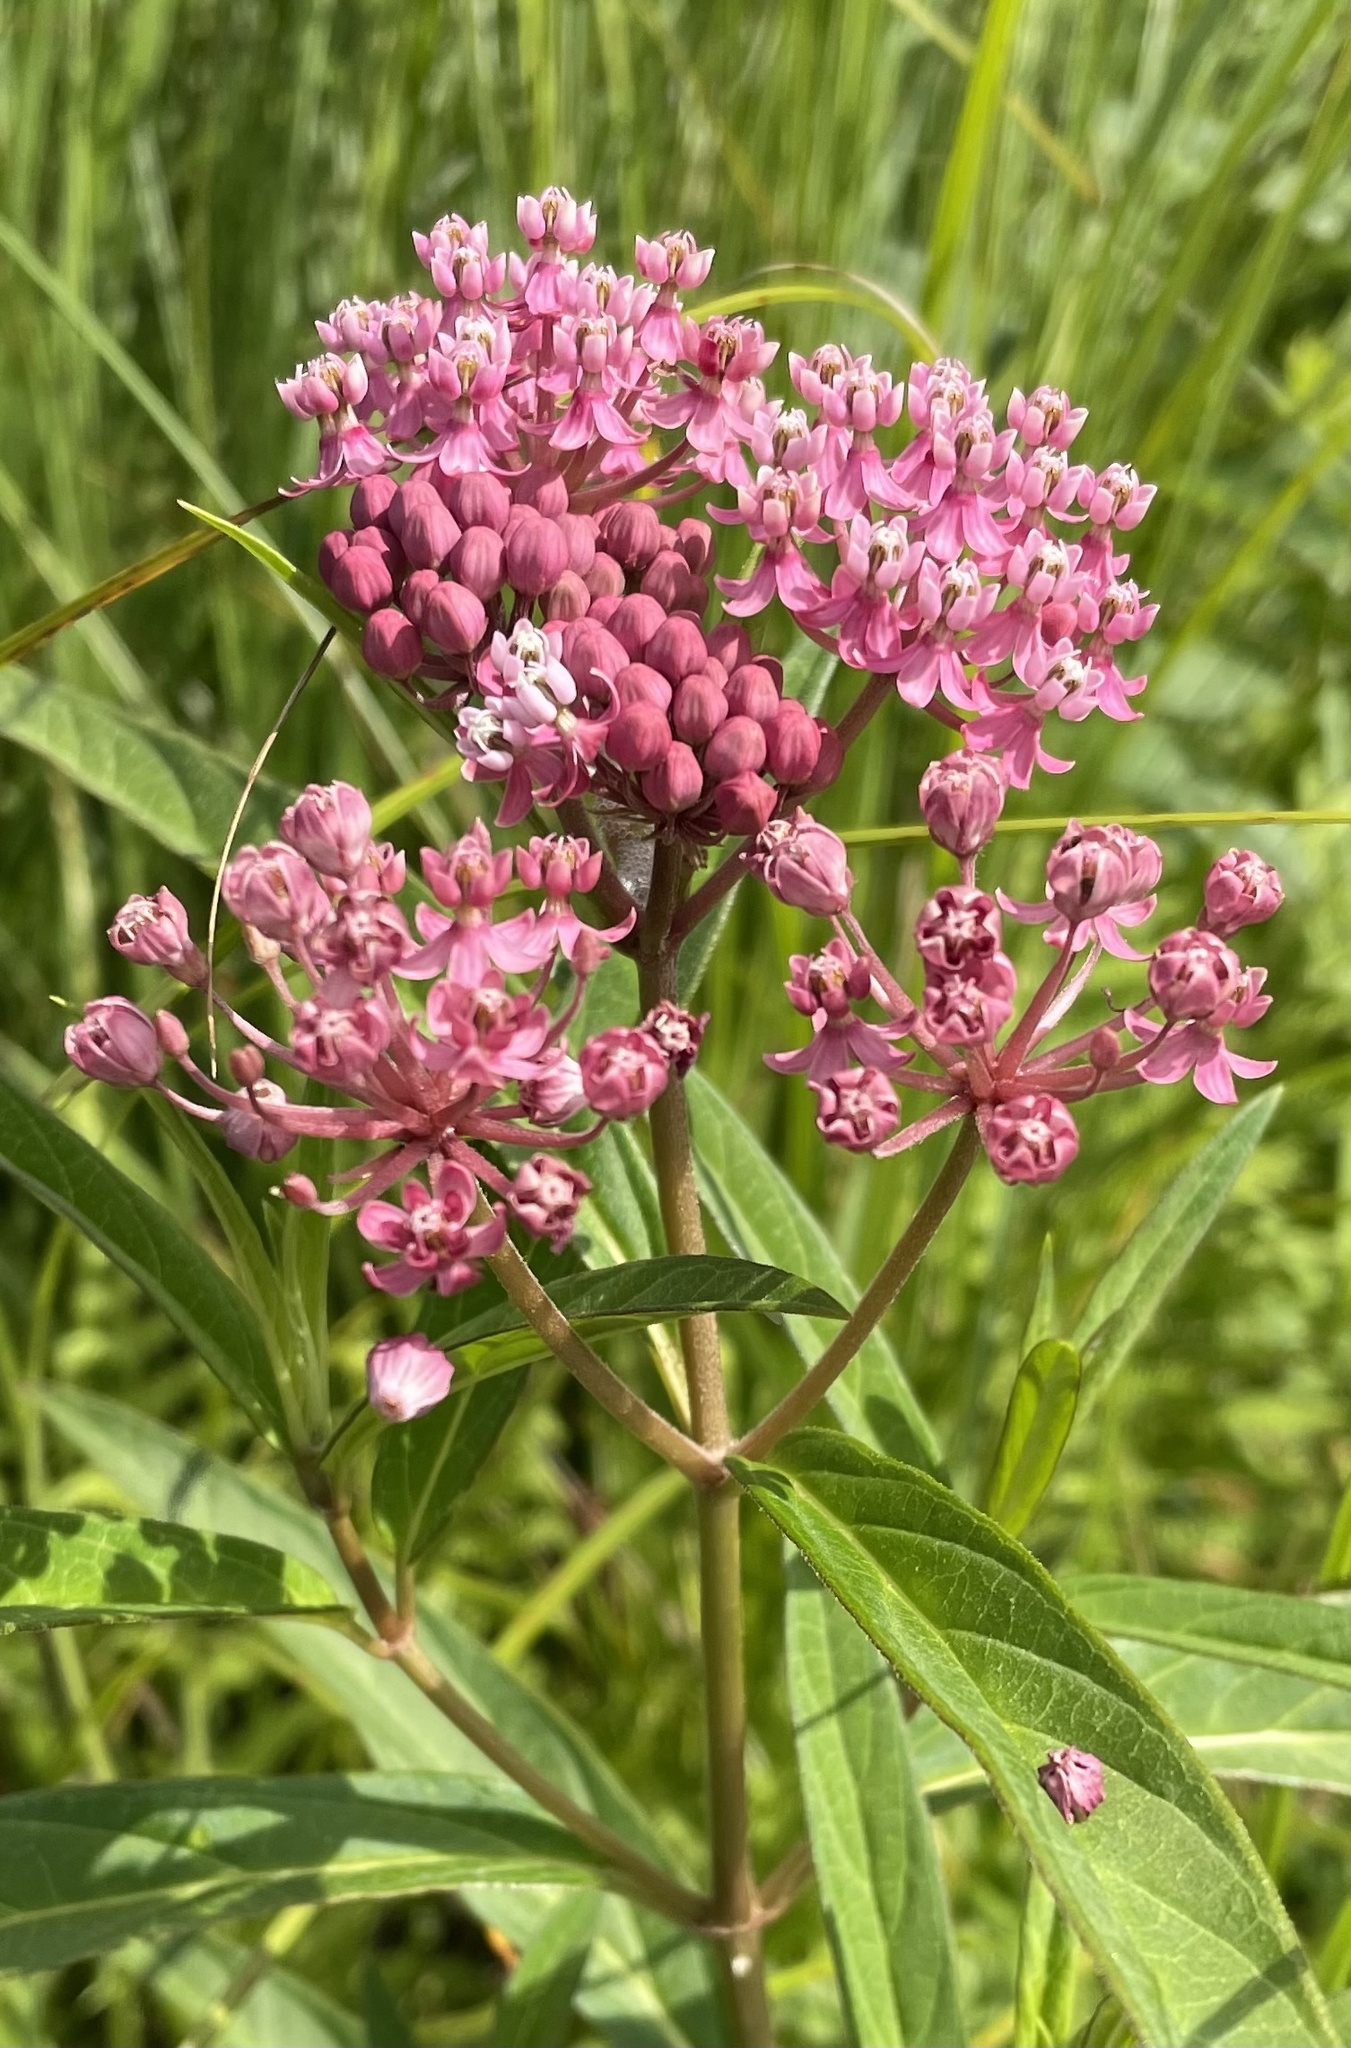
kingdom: Plantae
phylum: Tracheophyta
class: Magnoliopsida
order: Gentianales
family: Apocynaceae
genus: Asclepias
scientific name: Asclepias incarnata
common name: Swamp milkweed
